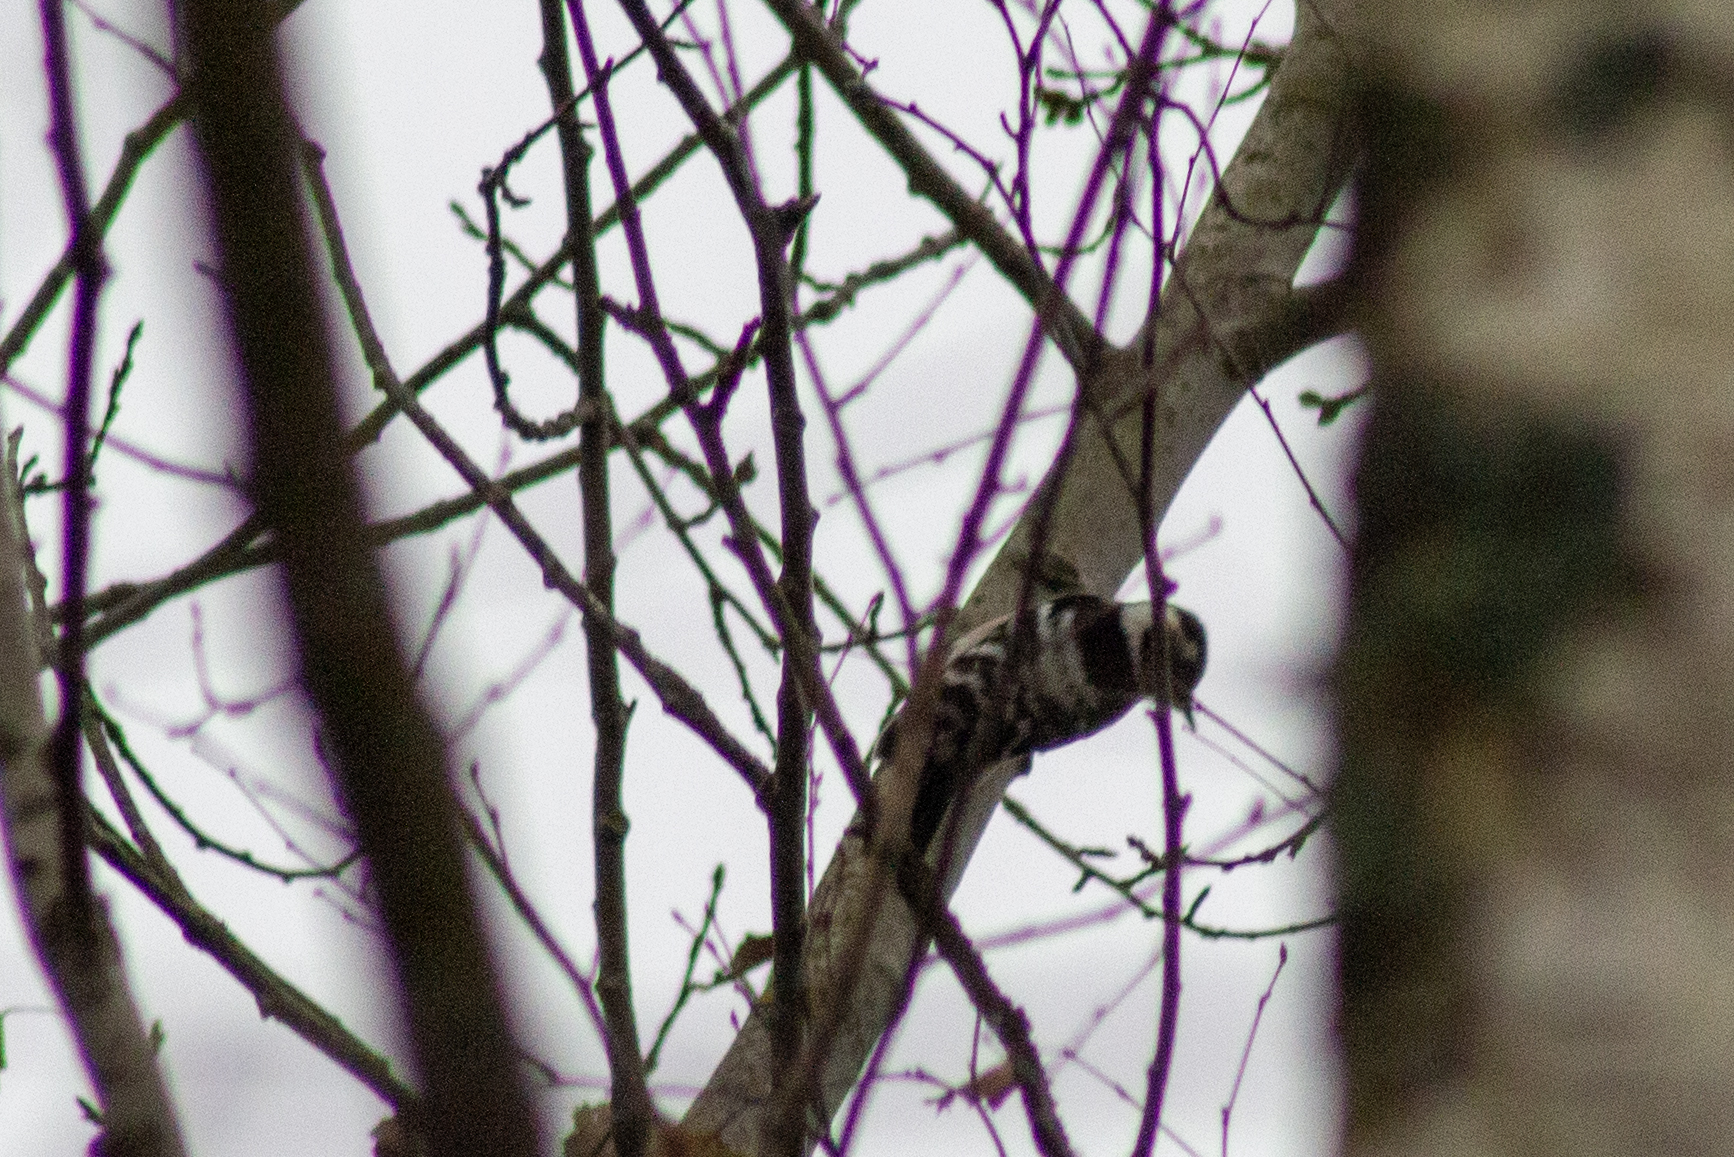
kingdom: Animalia
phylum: Chordata
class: Aves
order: Piciformes
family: Picidae
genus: Dryobates
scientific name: Dryobates minor
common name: Lesser spotted woodpecker
